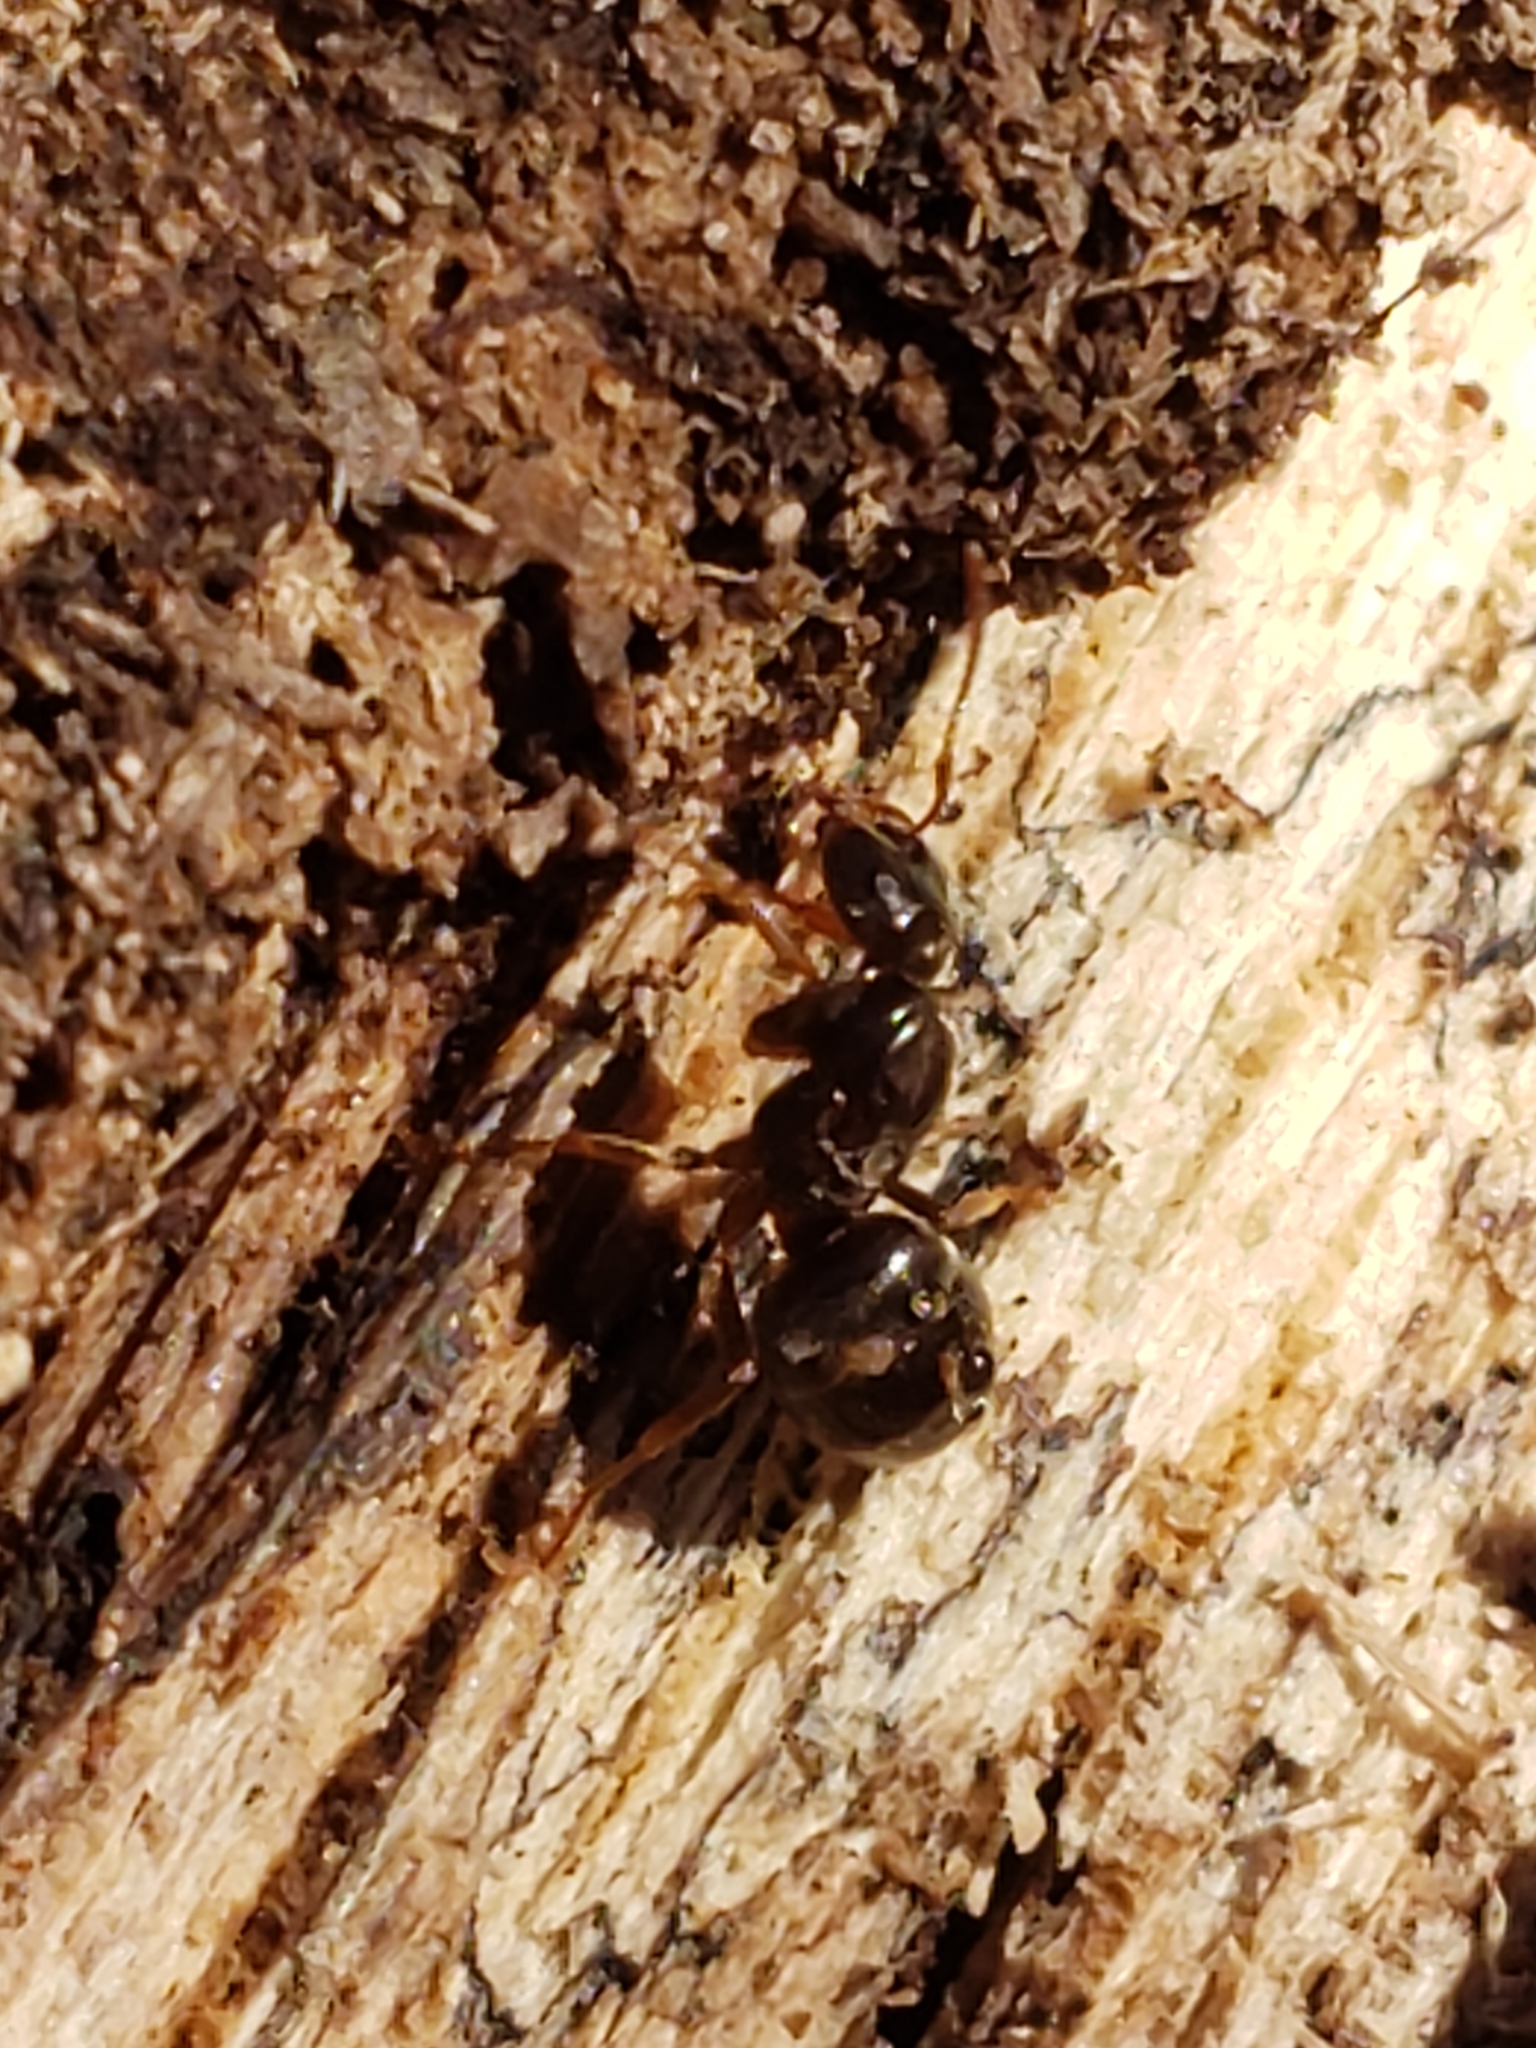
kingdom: Animalia
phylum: Arthropoda
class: Insecta
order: Hymenoptera
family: Formicidae
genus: Lasius
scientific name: Lasius aphidicola
